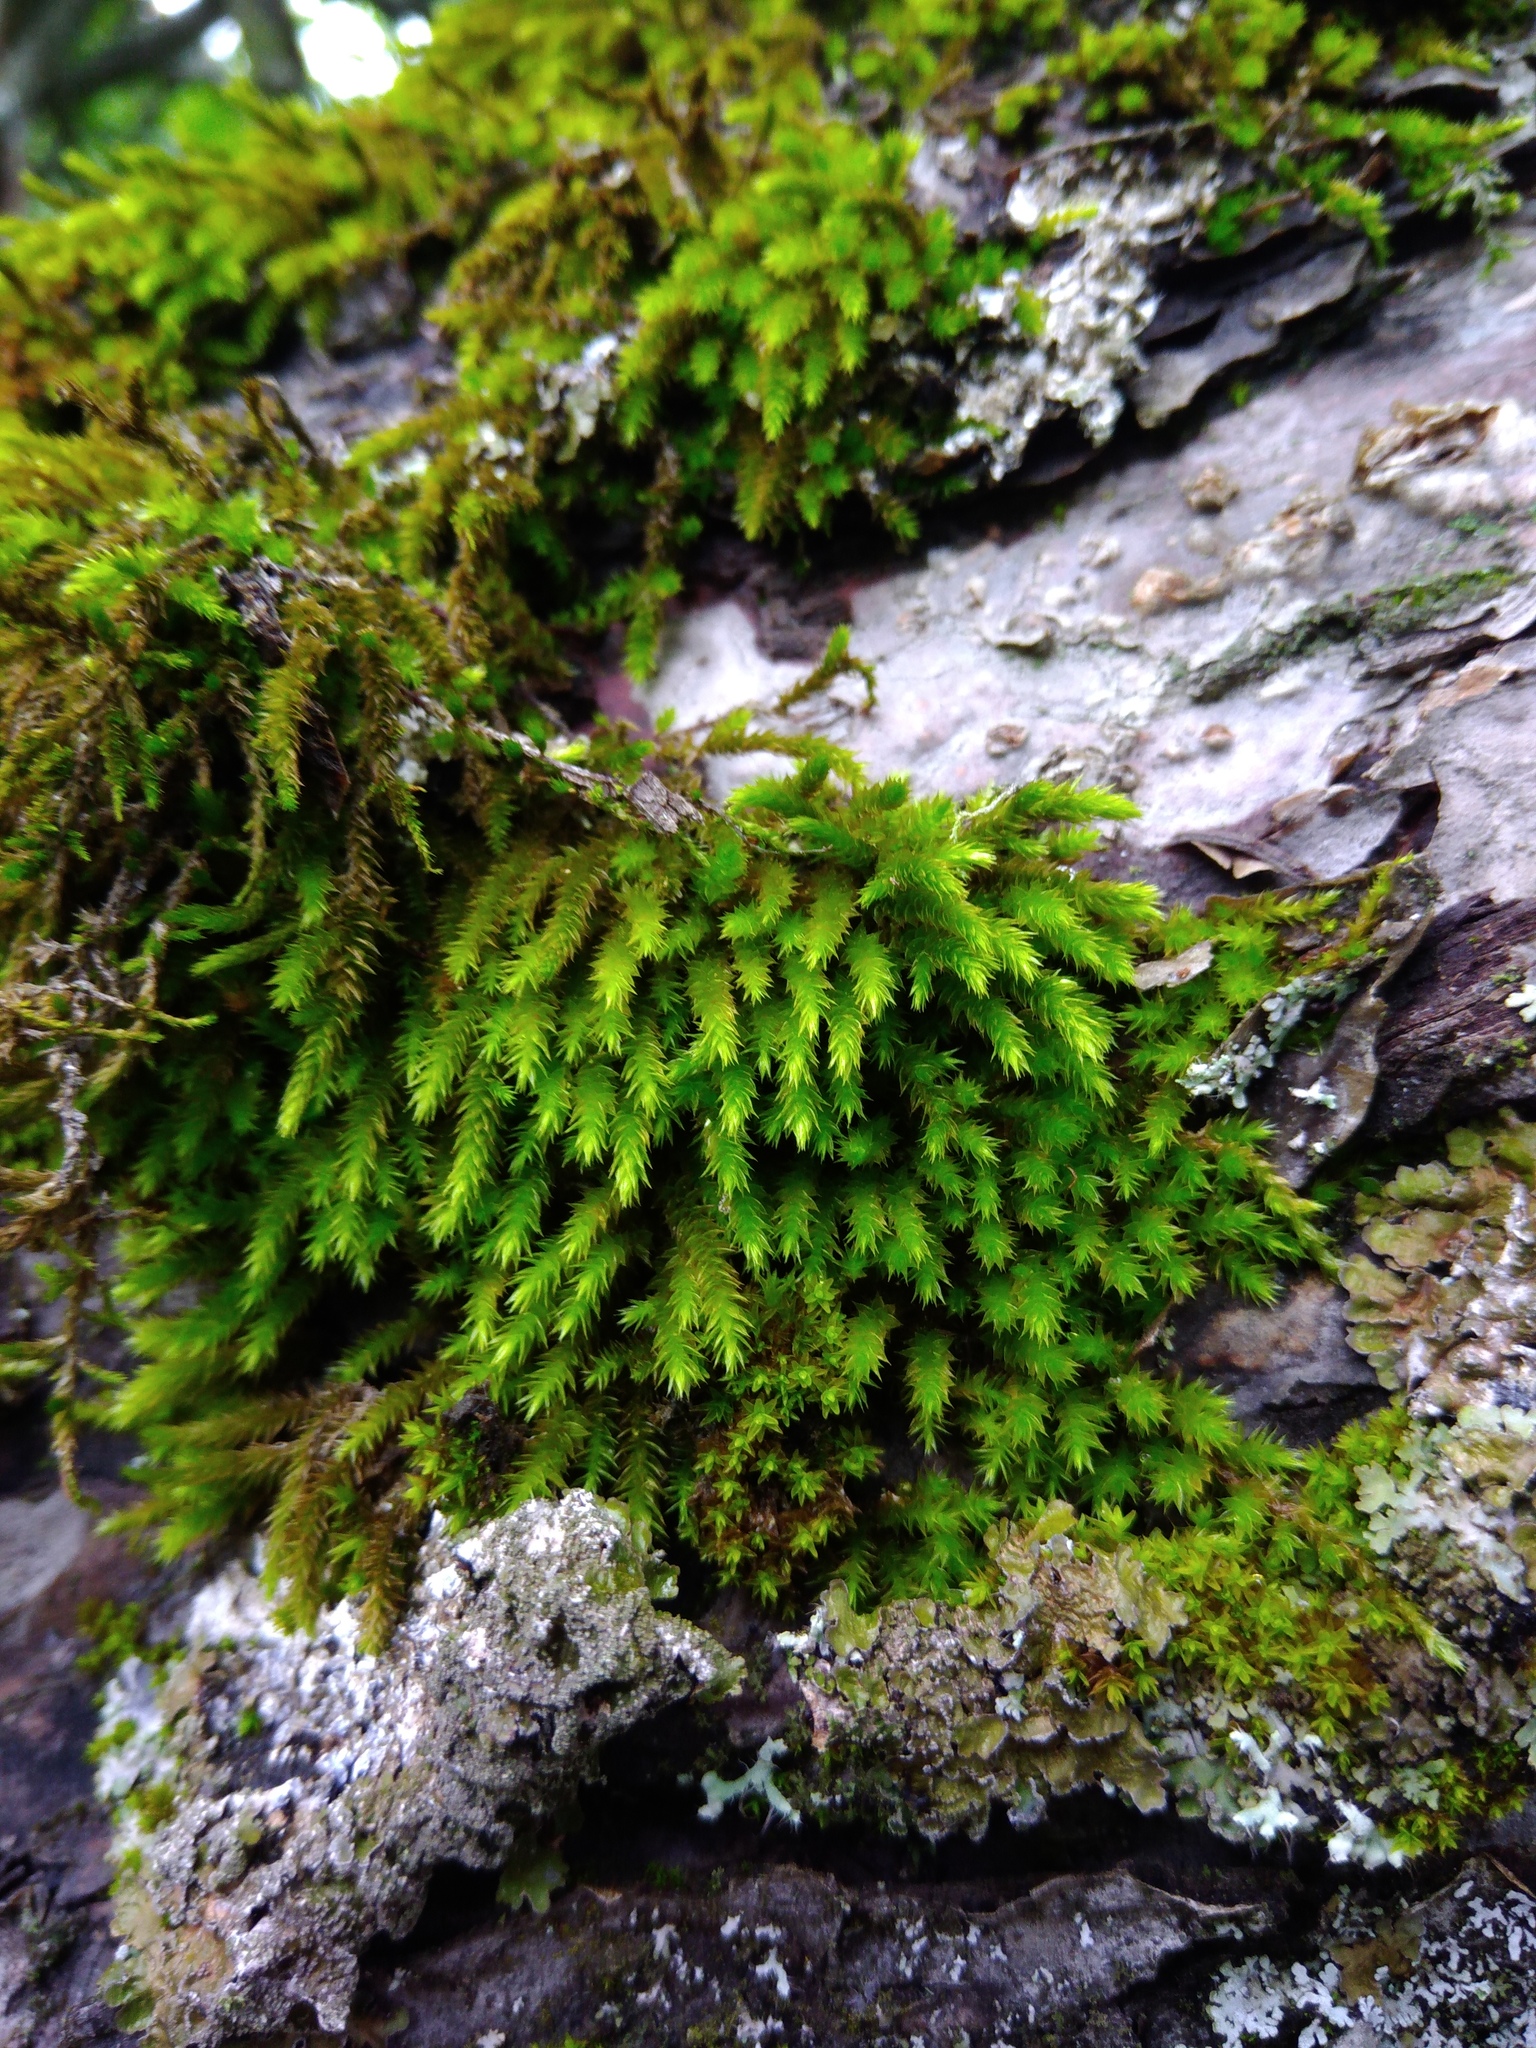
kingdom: Plantae
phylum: Bryophyta
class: Bryopsida
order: Hypnales
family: Leucodontaceae
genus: Leucodon
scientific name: Leucodon sciuroides
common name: Squirrel-tail moss
